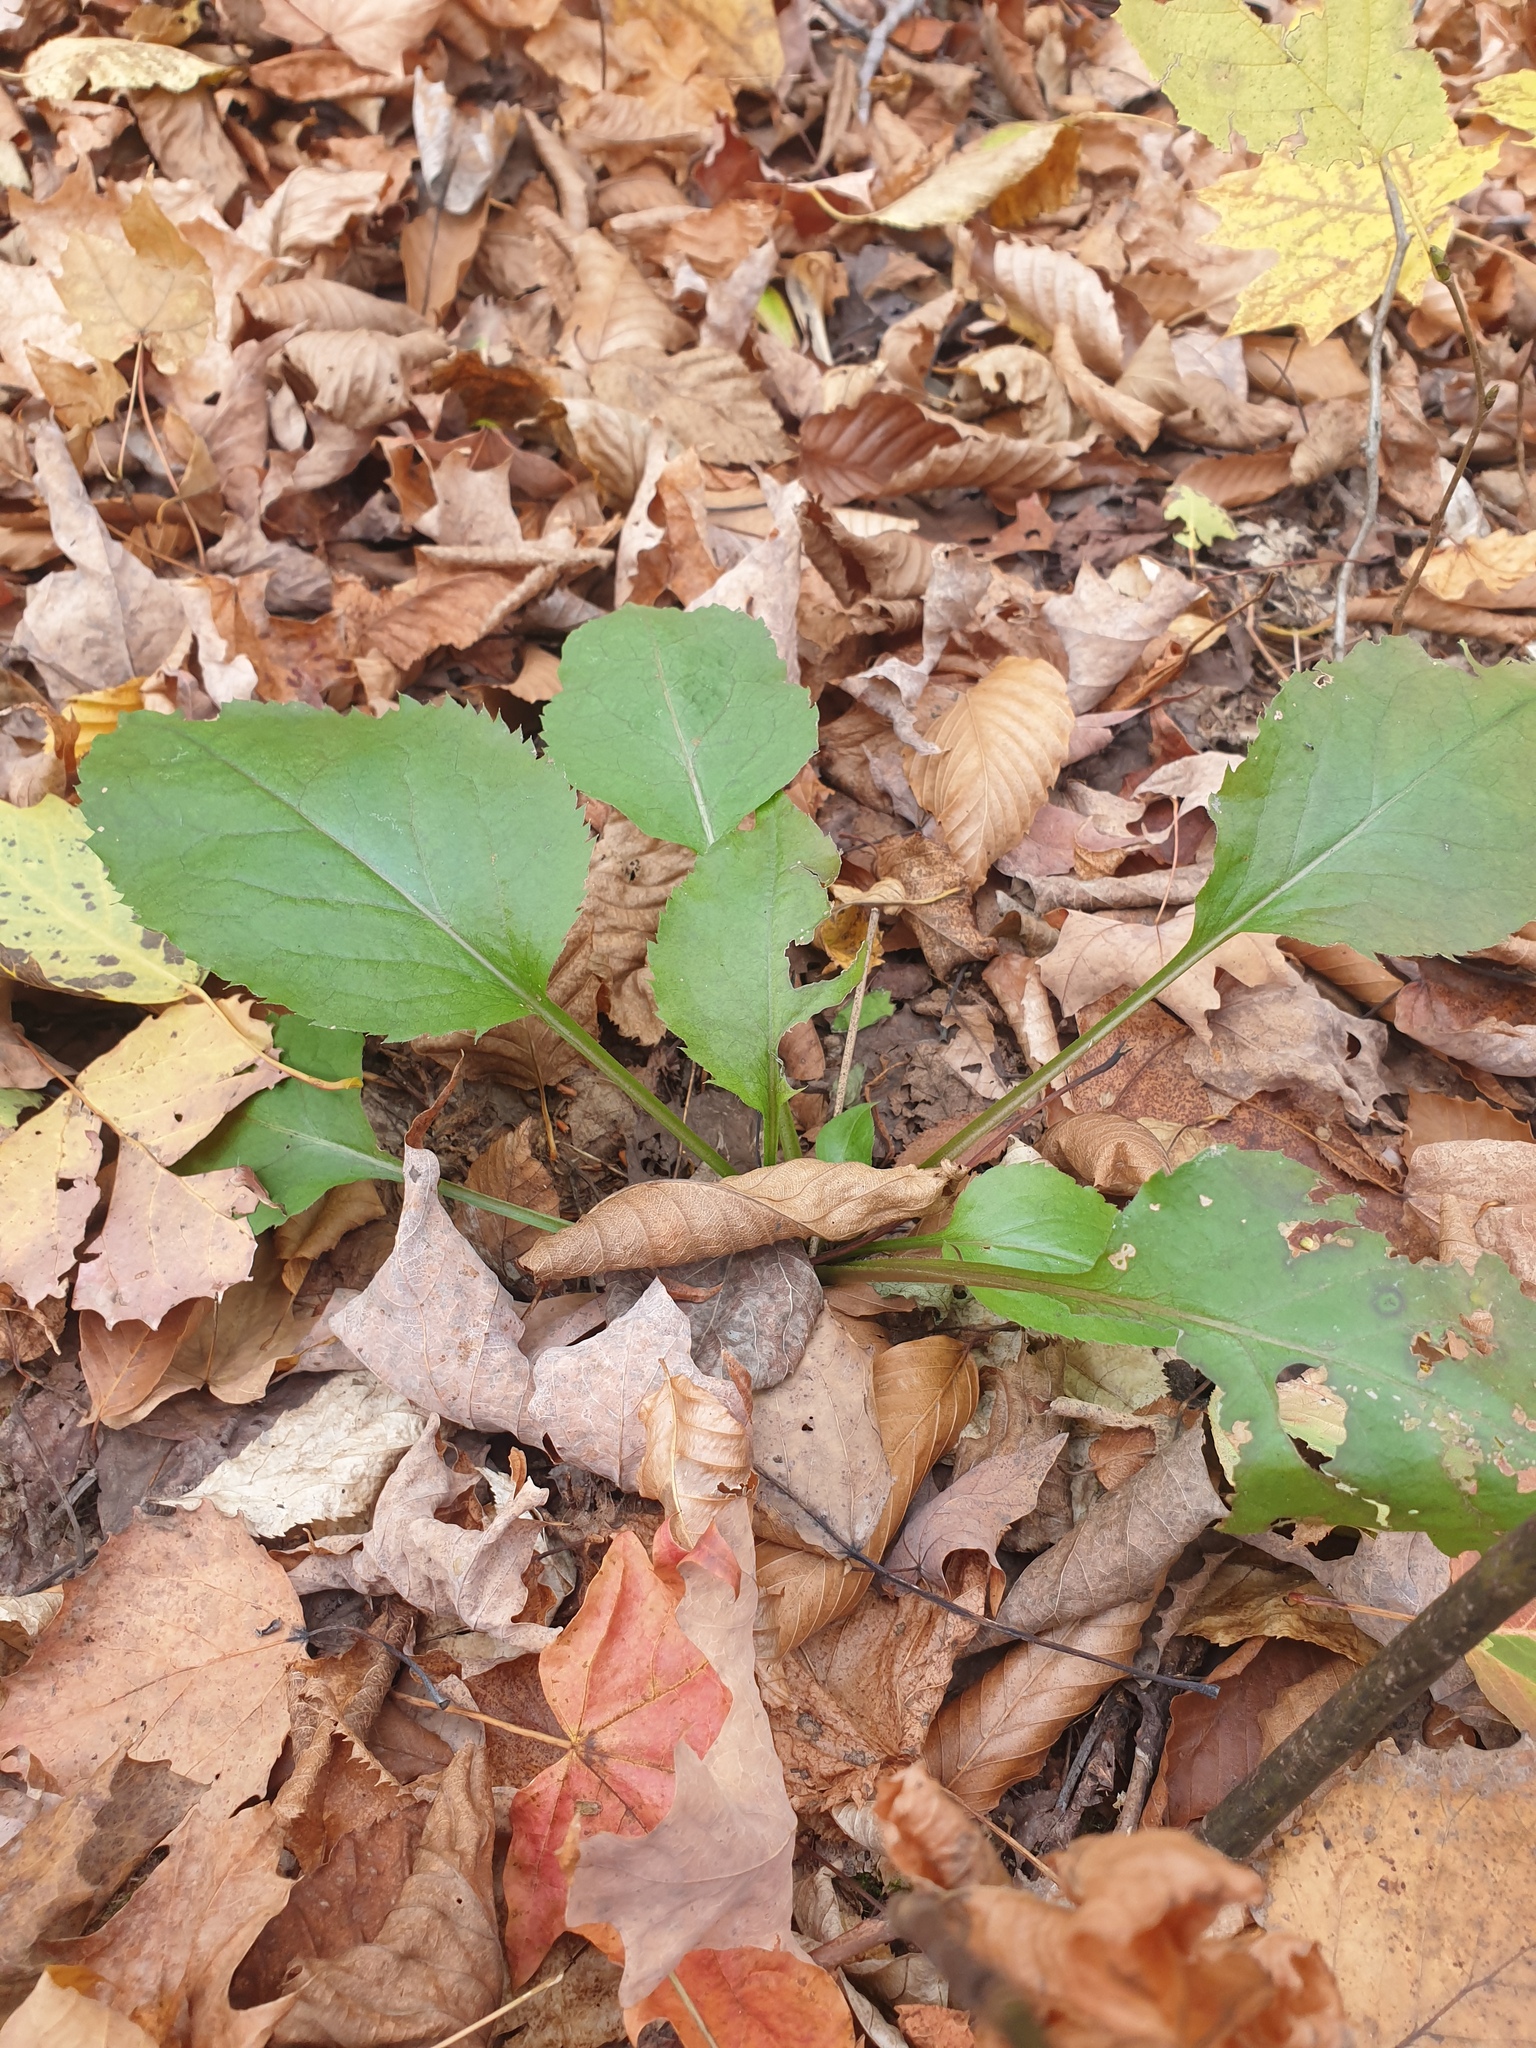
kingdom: Plantae
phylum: Tracheophyta
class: Magnoliopsida
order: Asterales
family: Asteraceae
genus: Solidago
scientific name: Solidago macrophylla
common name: Large-leaved goldenrod
